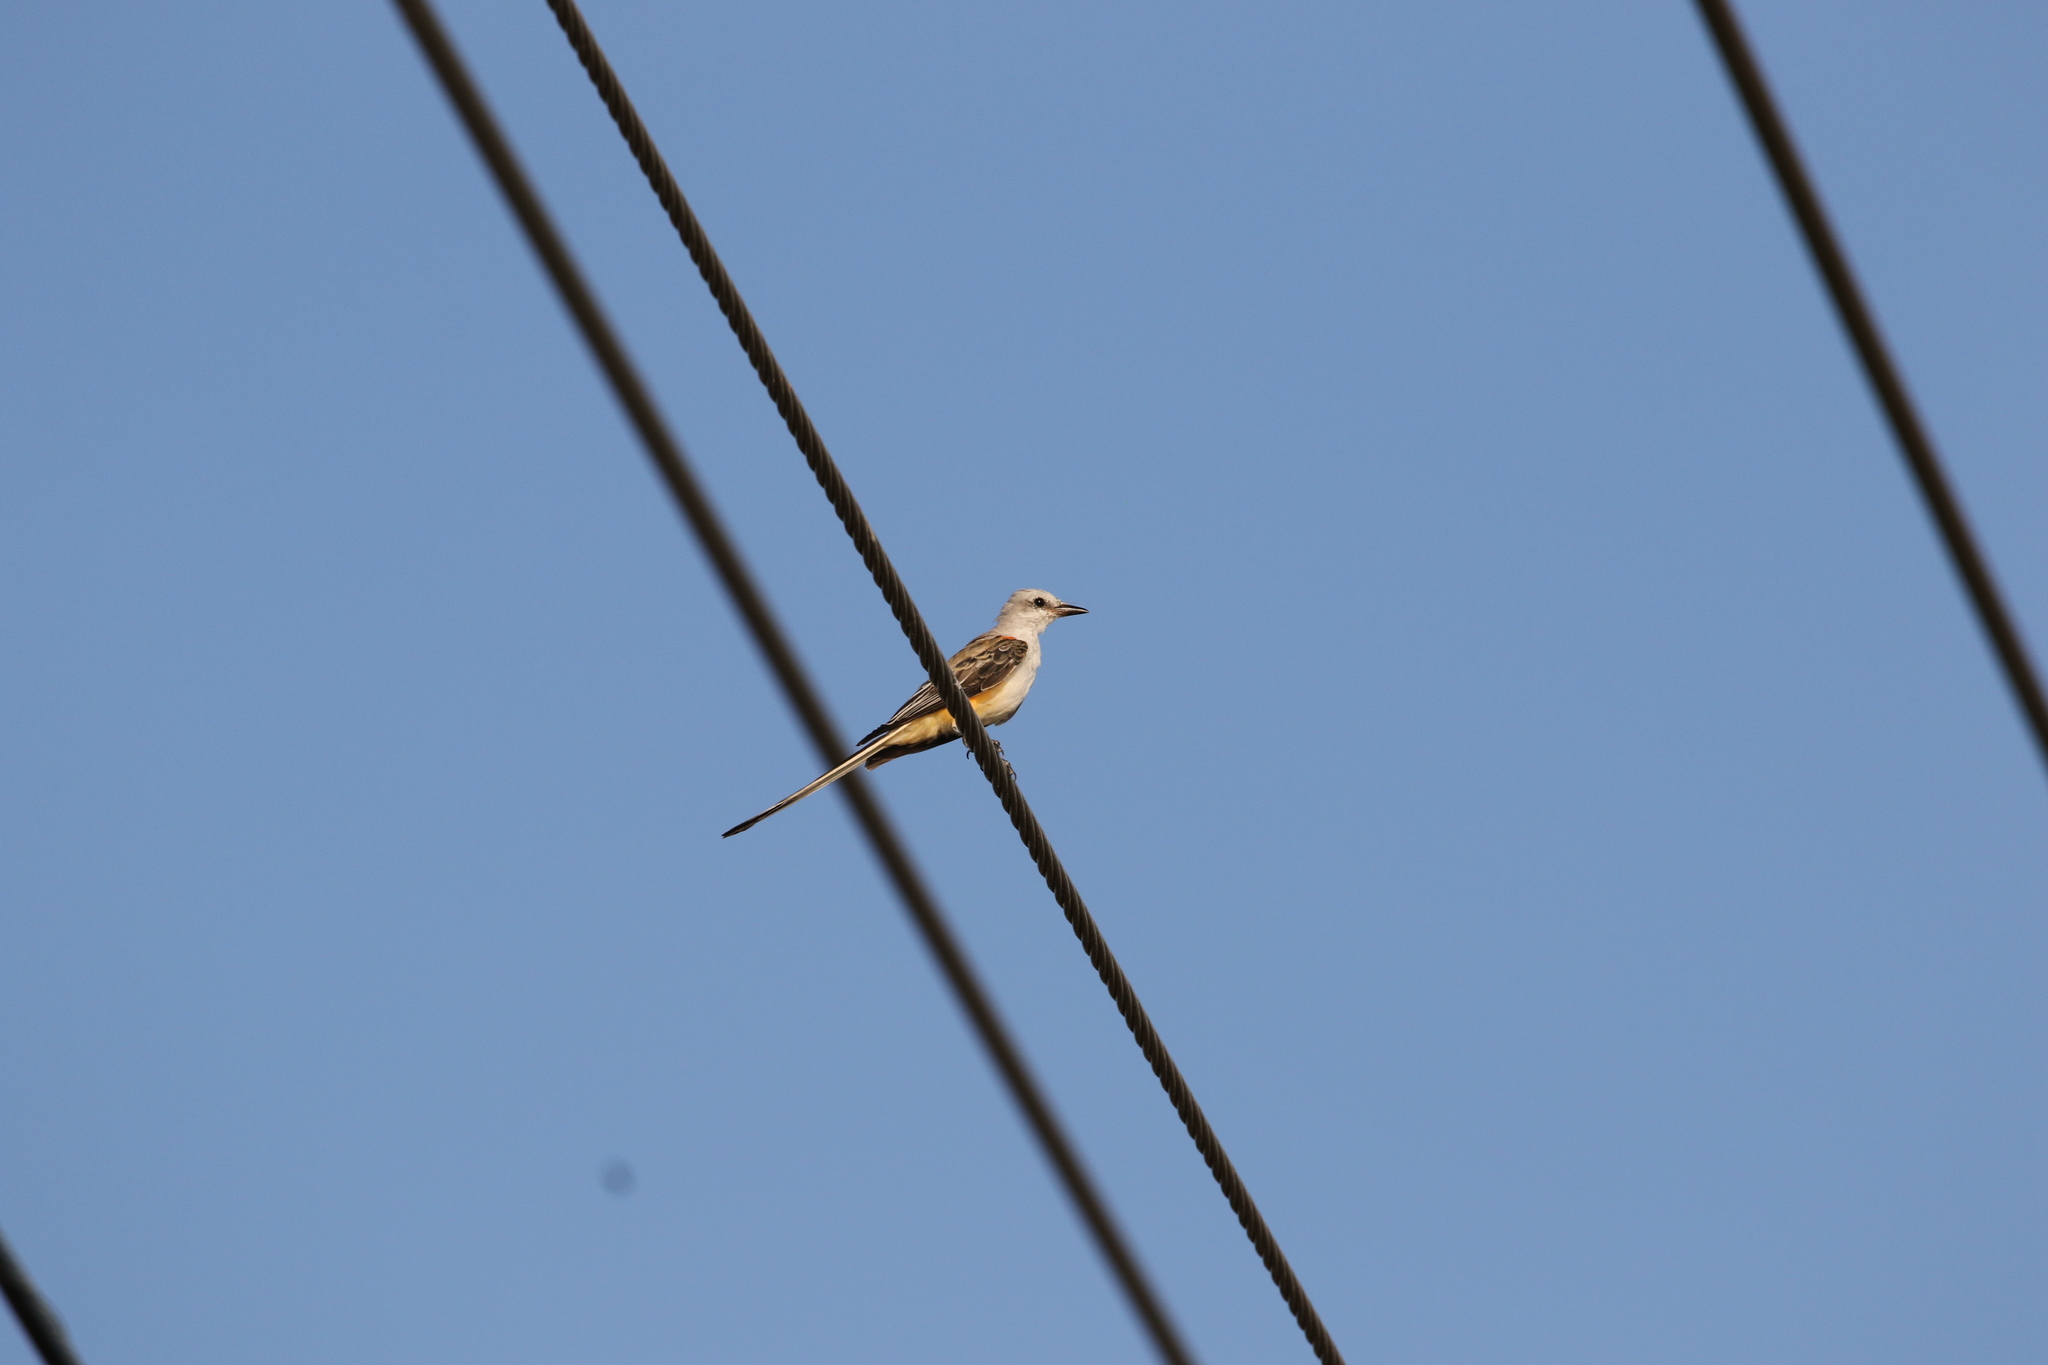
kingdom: Animalia
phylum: Chordata
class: Aves
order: Passeriformes
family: Tyrannidae
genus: Tyrannus
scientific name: Tyrannus forficatus
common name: Scissor-tailed flycatcher
